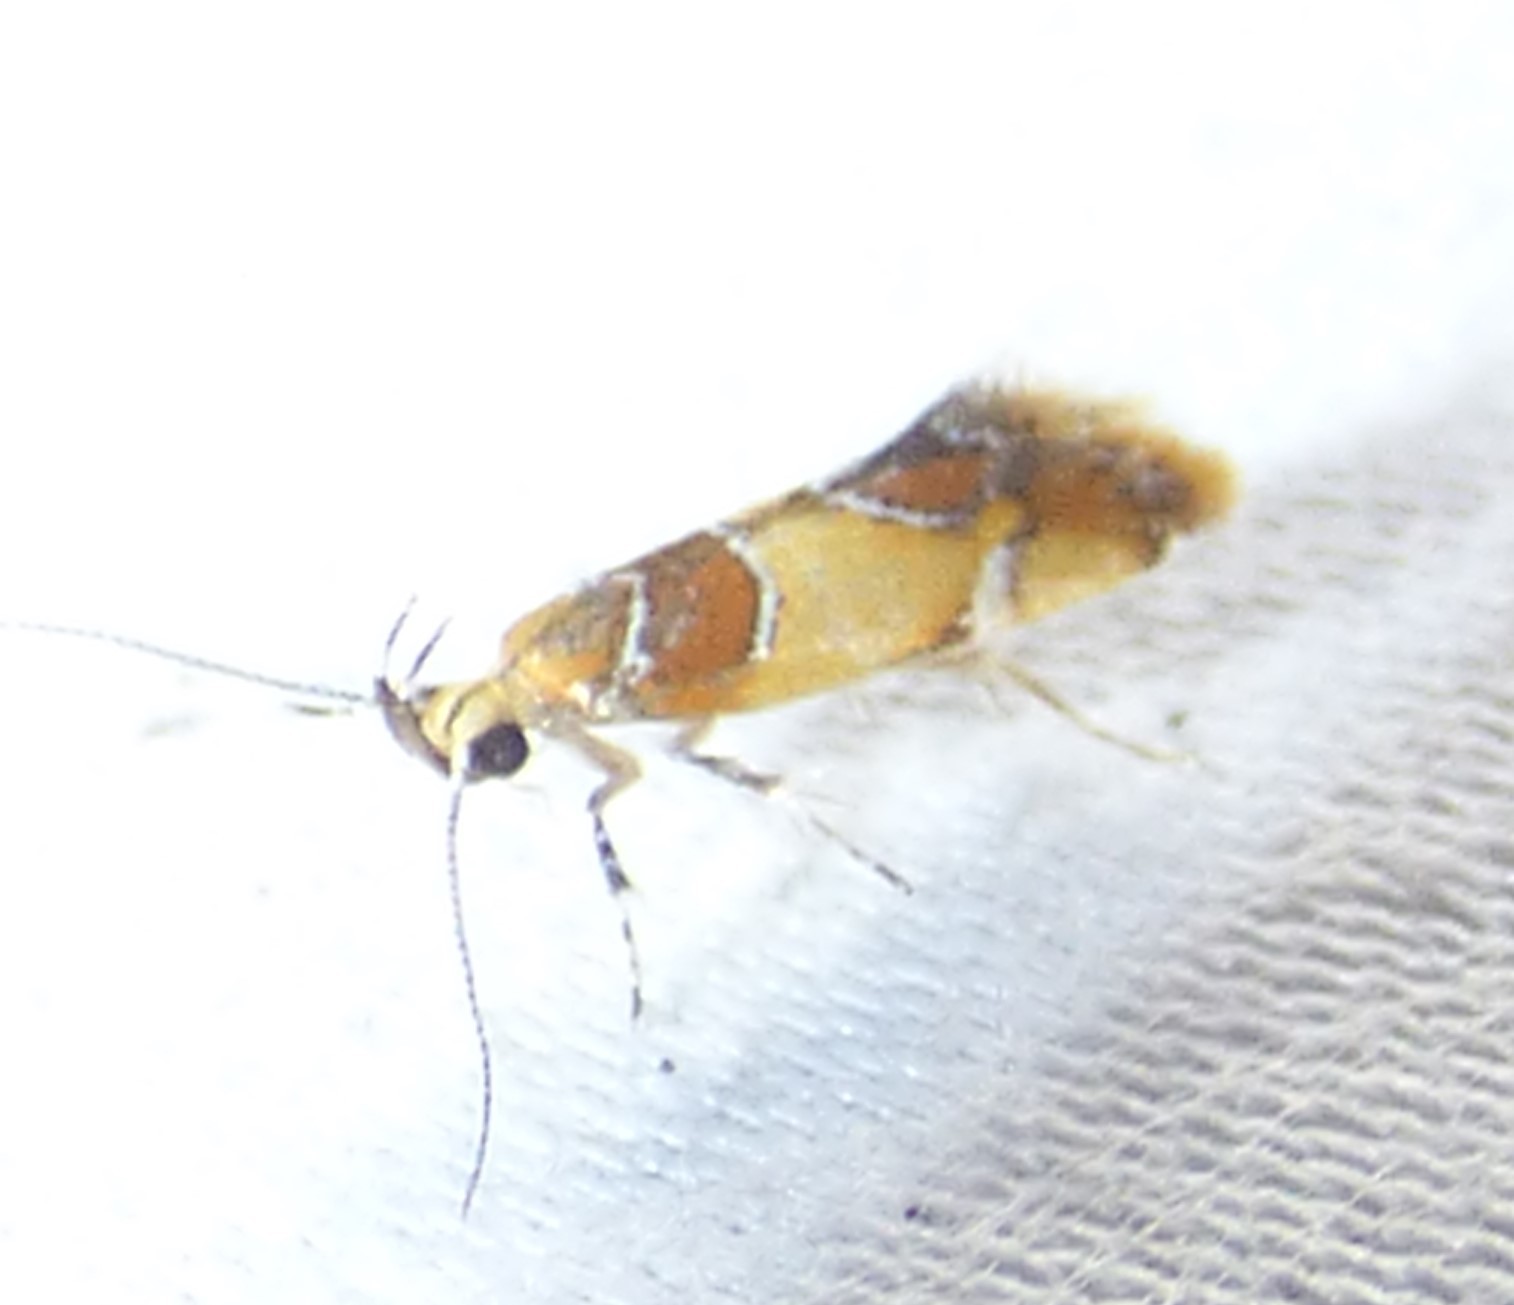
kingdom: Animalia
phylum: Arthropoda
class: Insecta
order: Lepidoptera
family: Oecophoridae
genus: Callima
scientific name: Callima argenticinctella
